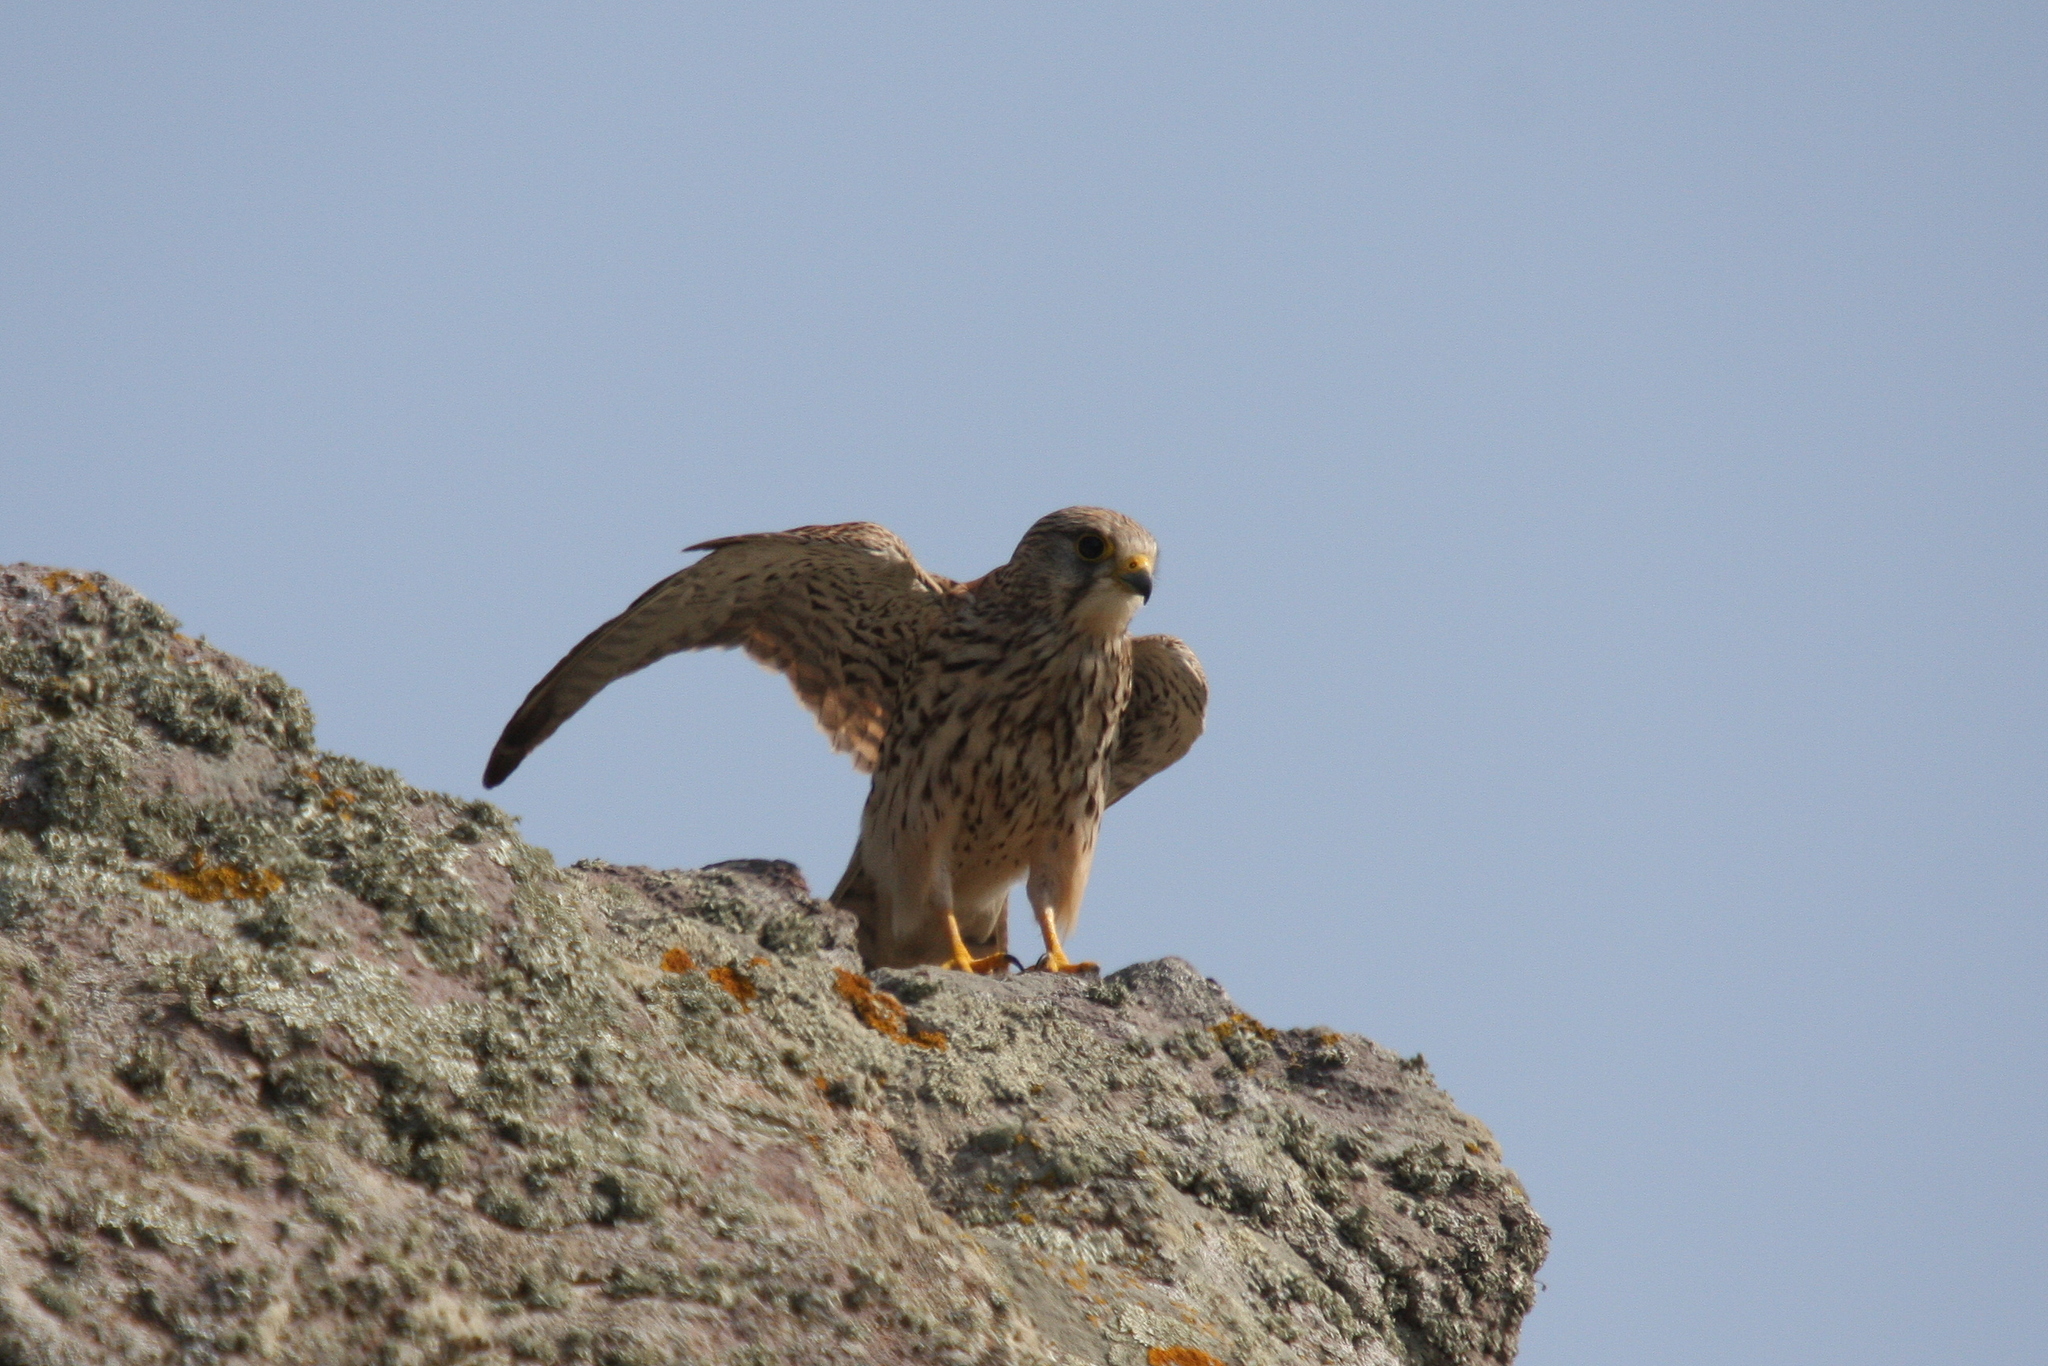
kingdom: Animalia
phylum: Chordata
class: Aves
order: Falconiformes
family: Falconidae
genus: Falco
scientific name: Falco tinnunculus
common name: Common kestrel
